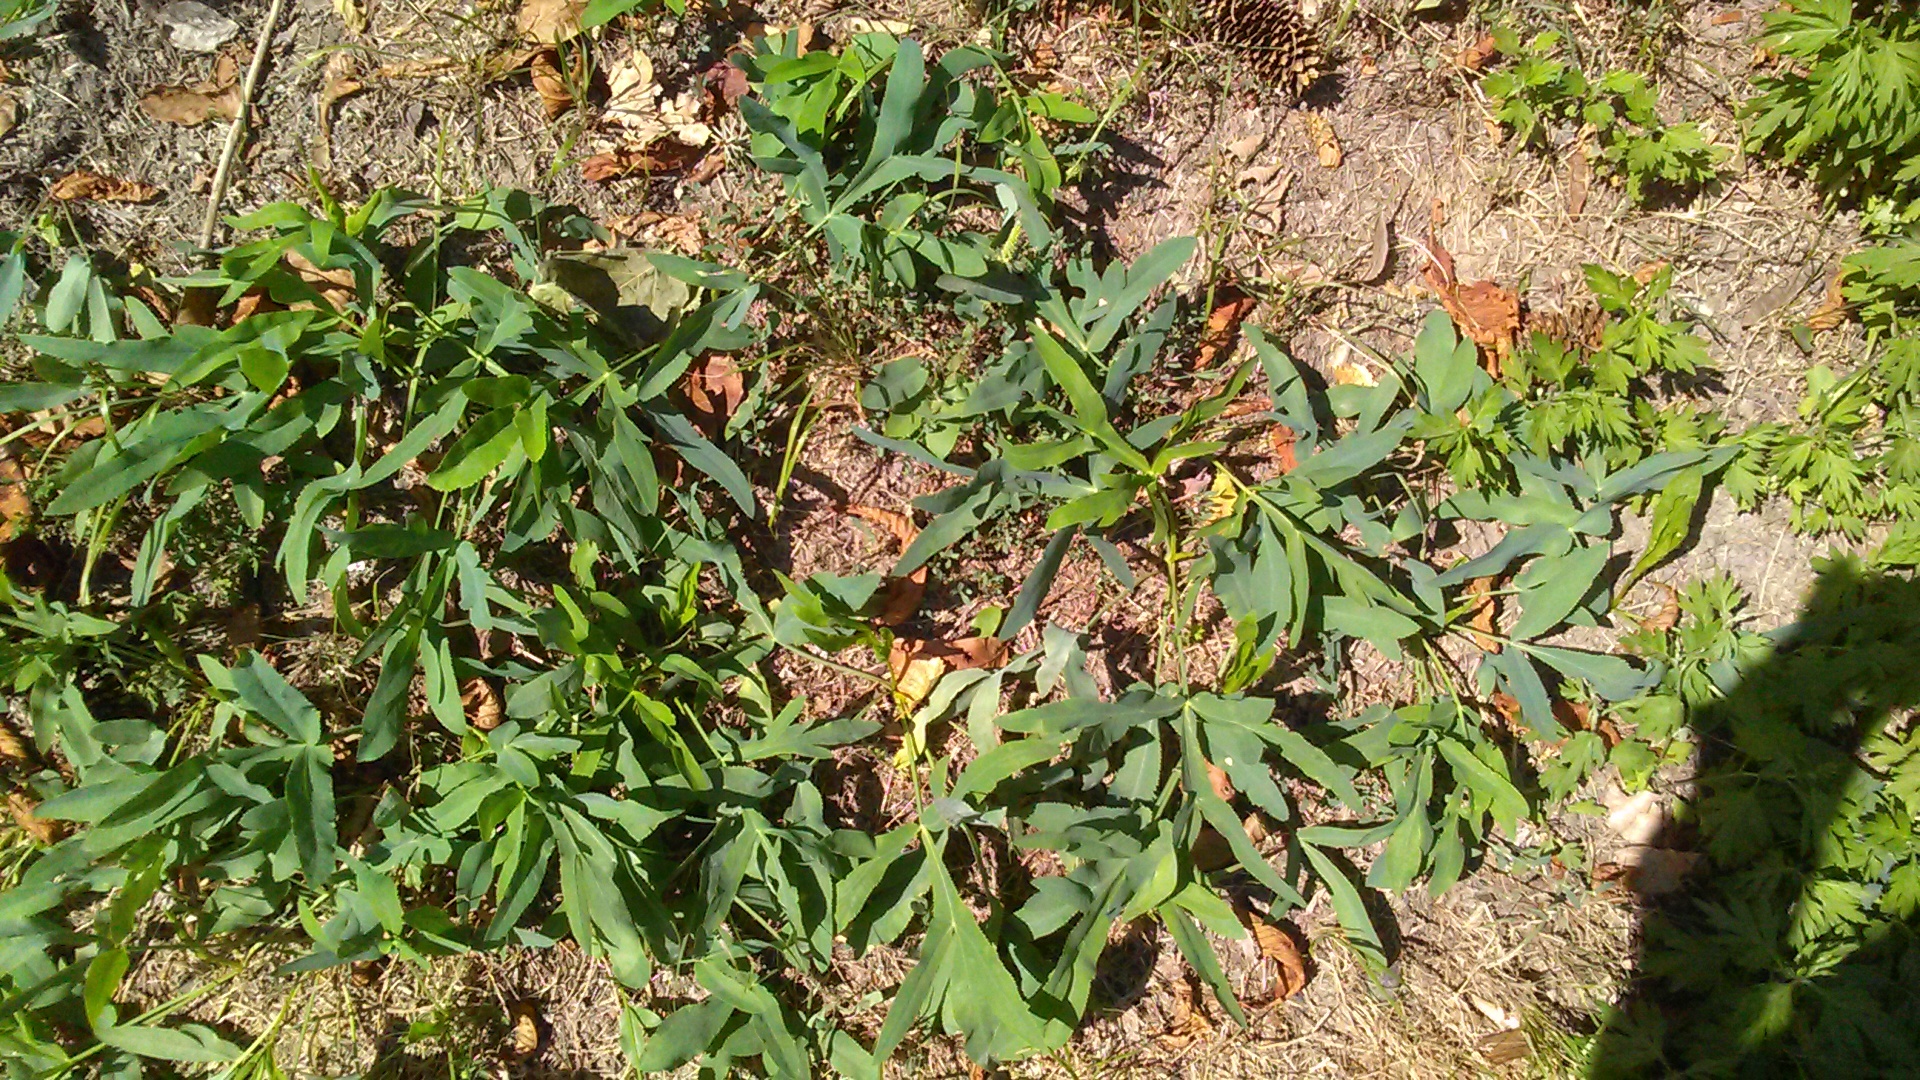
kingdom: Plantae
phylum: Tracheophyta
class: Magnoliopsida
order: Apiales
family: Apiaceae
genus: Falcaria
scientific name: Falcaria vulgaris
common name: Longleaf
